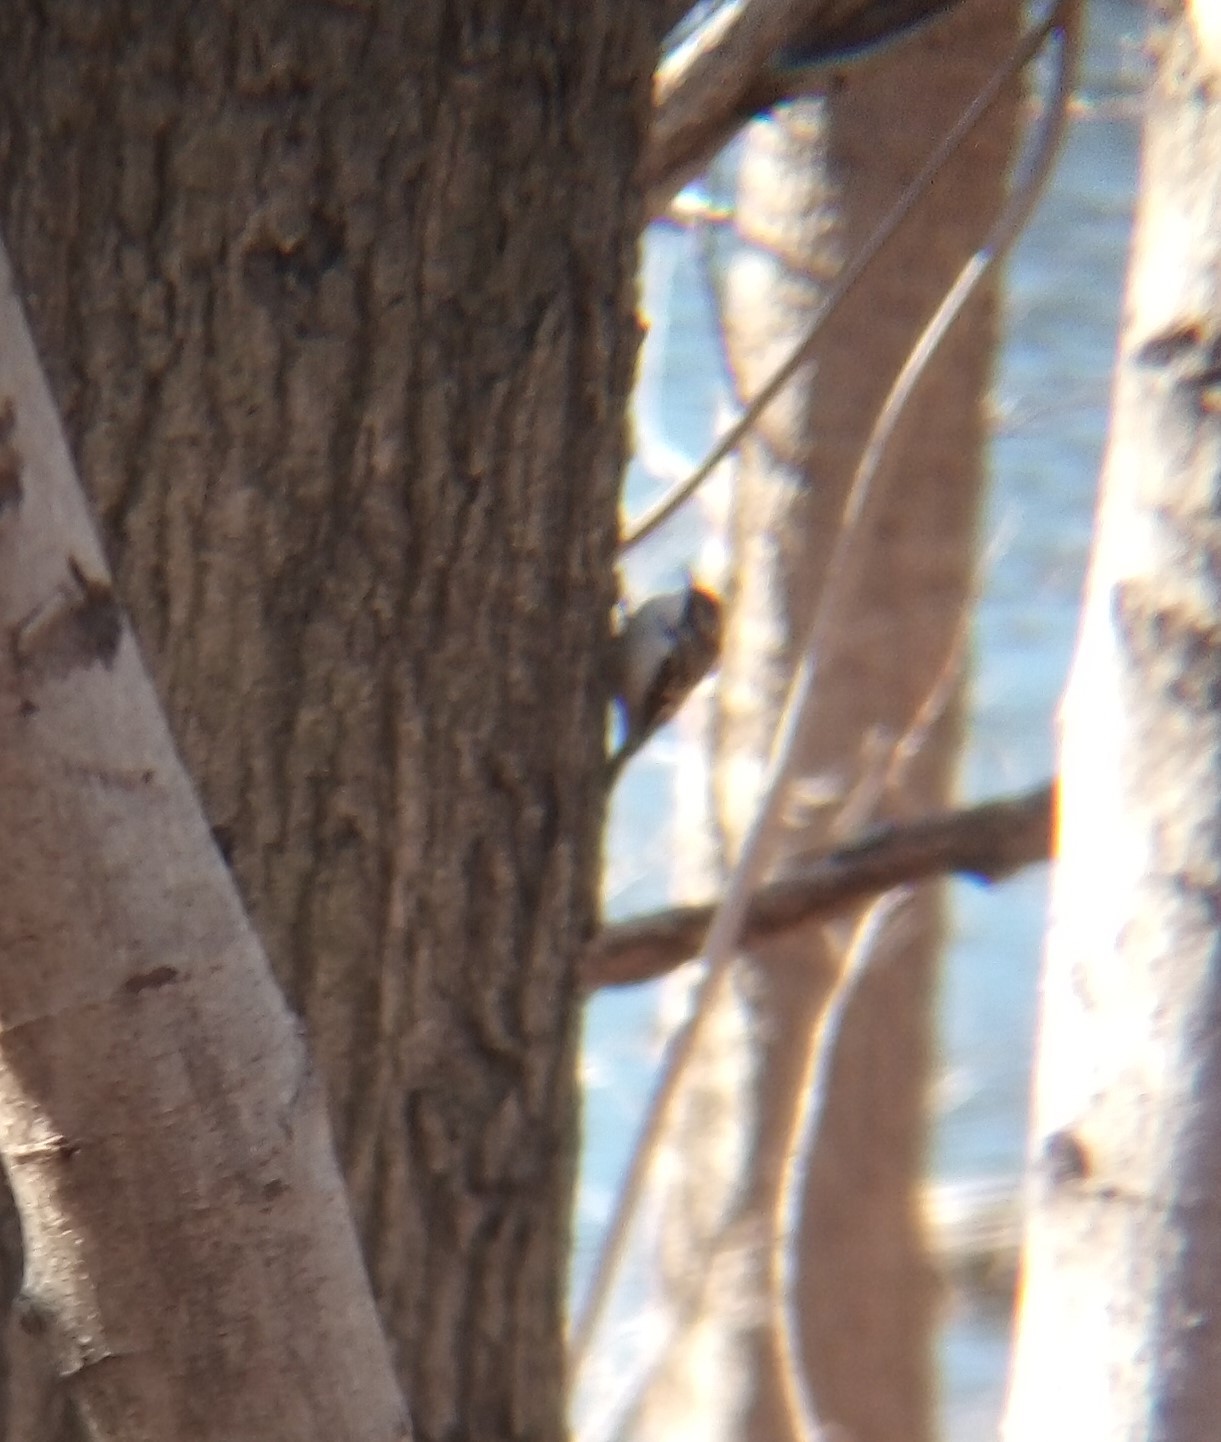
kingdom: Animalia
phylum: Chordata
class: Aves
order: Passeriformes
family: Certhiidae
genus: Certhia
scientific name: Certhia americana
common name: Brown creeper
